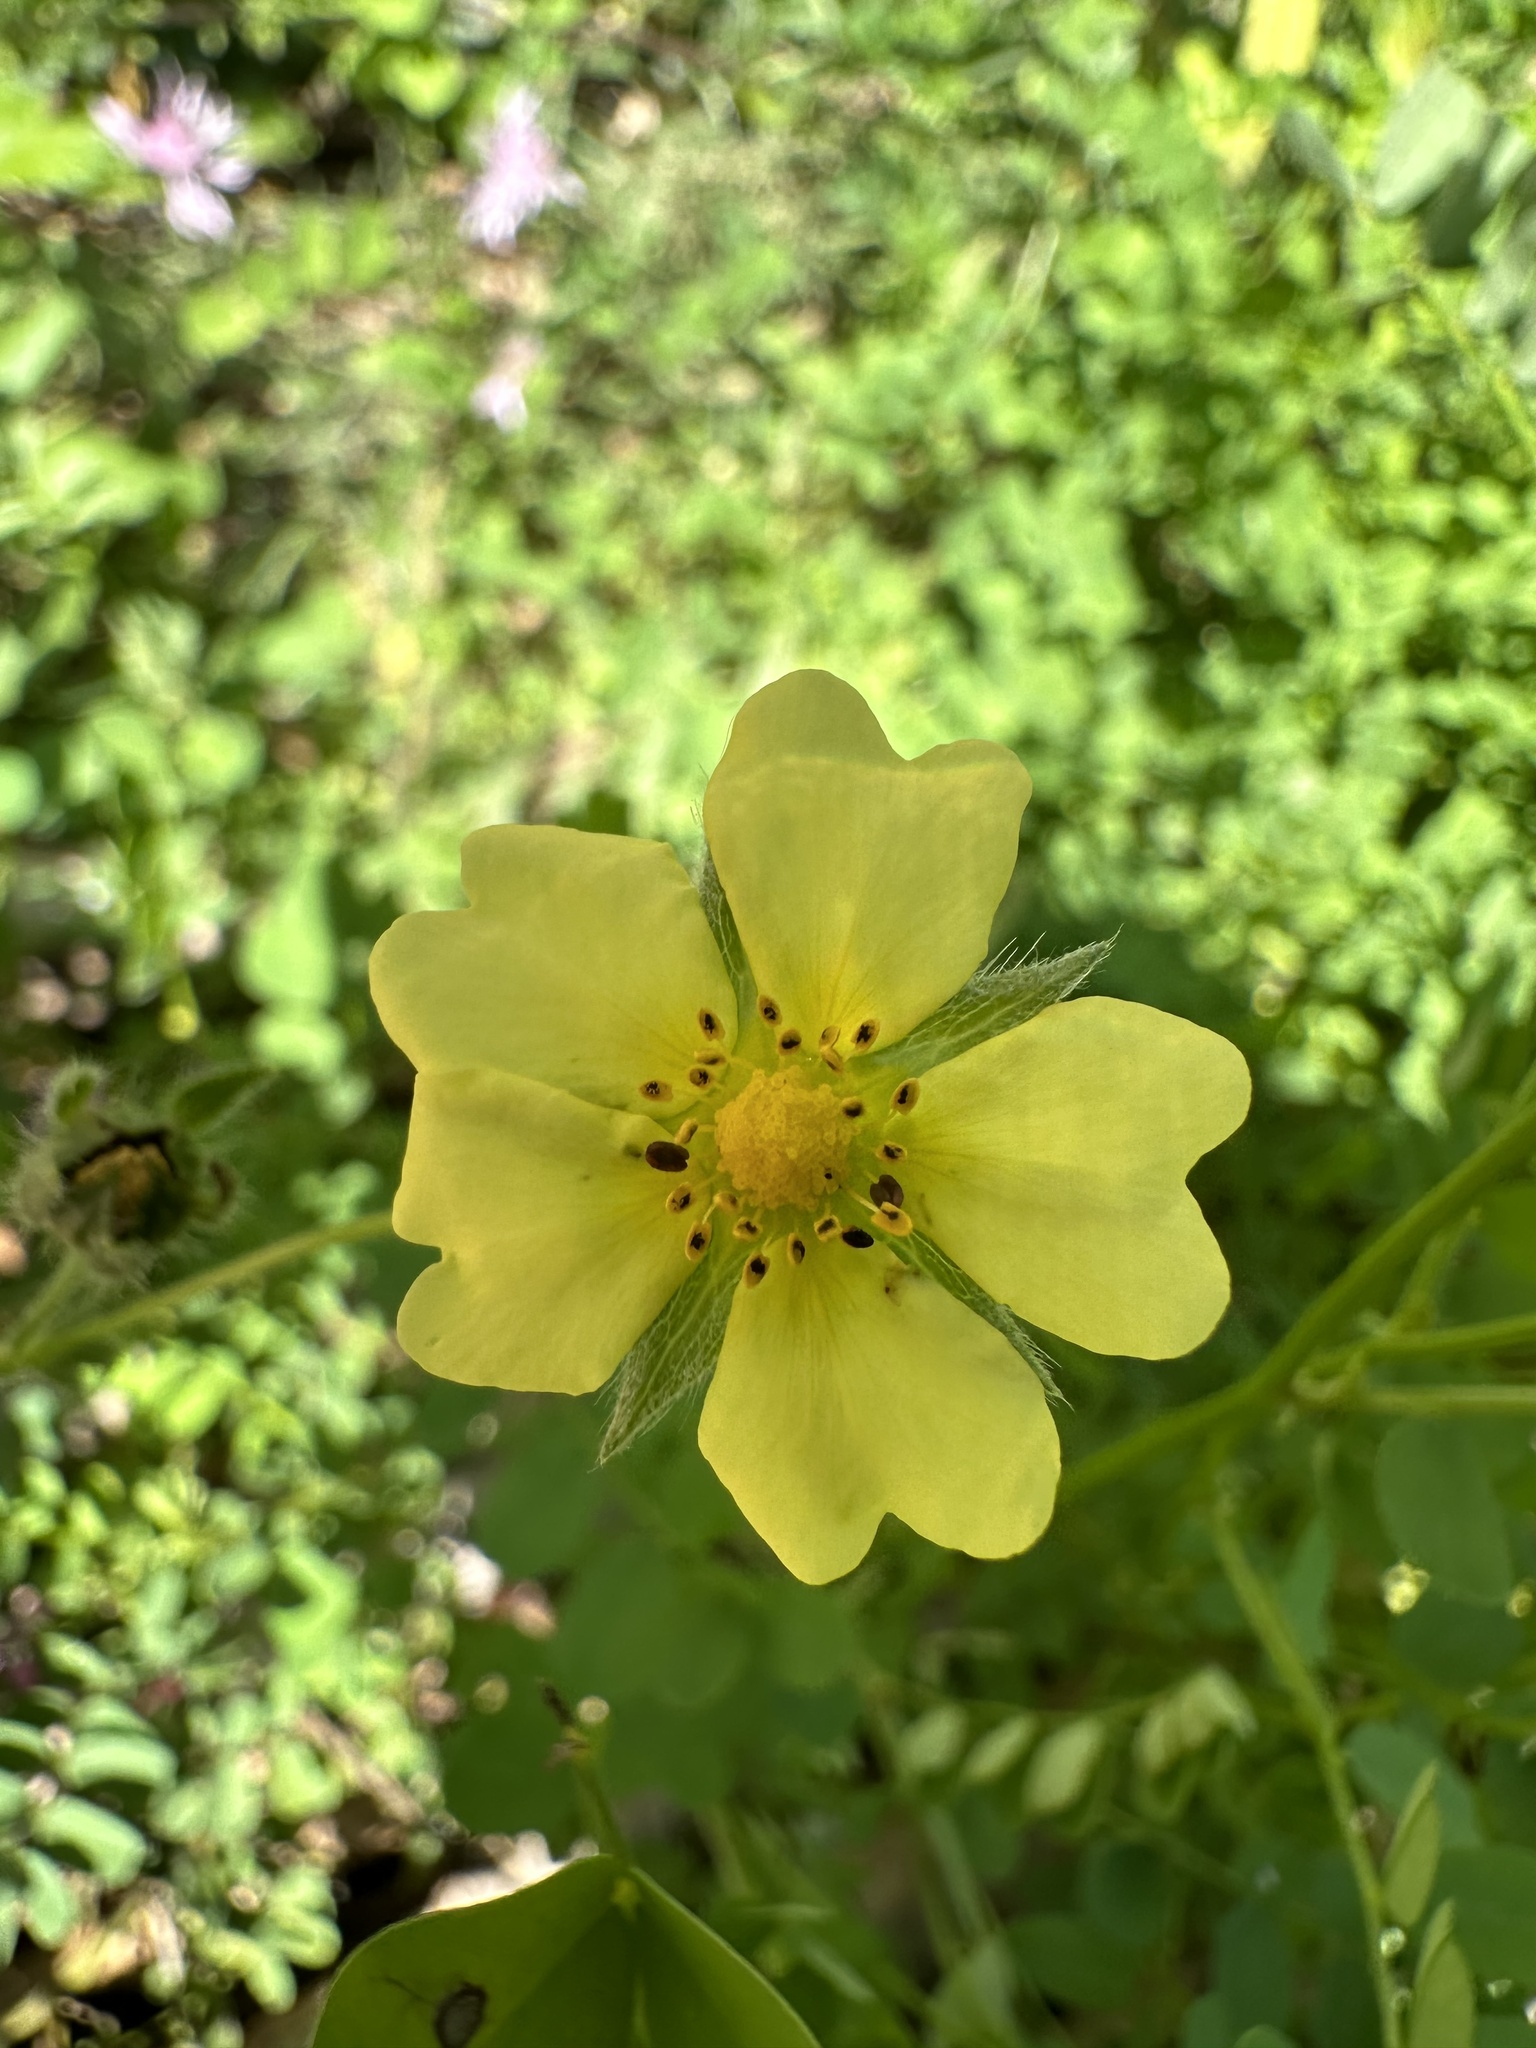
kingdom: Plantae
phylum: Tracheophyta
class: Magnoliopsida
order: Rosales
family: Rosaceae
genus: Potentilla
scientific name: Potentilla recta
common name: Sulphur cinquefoil
